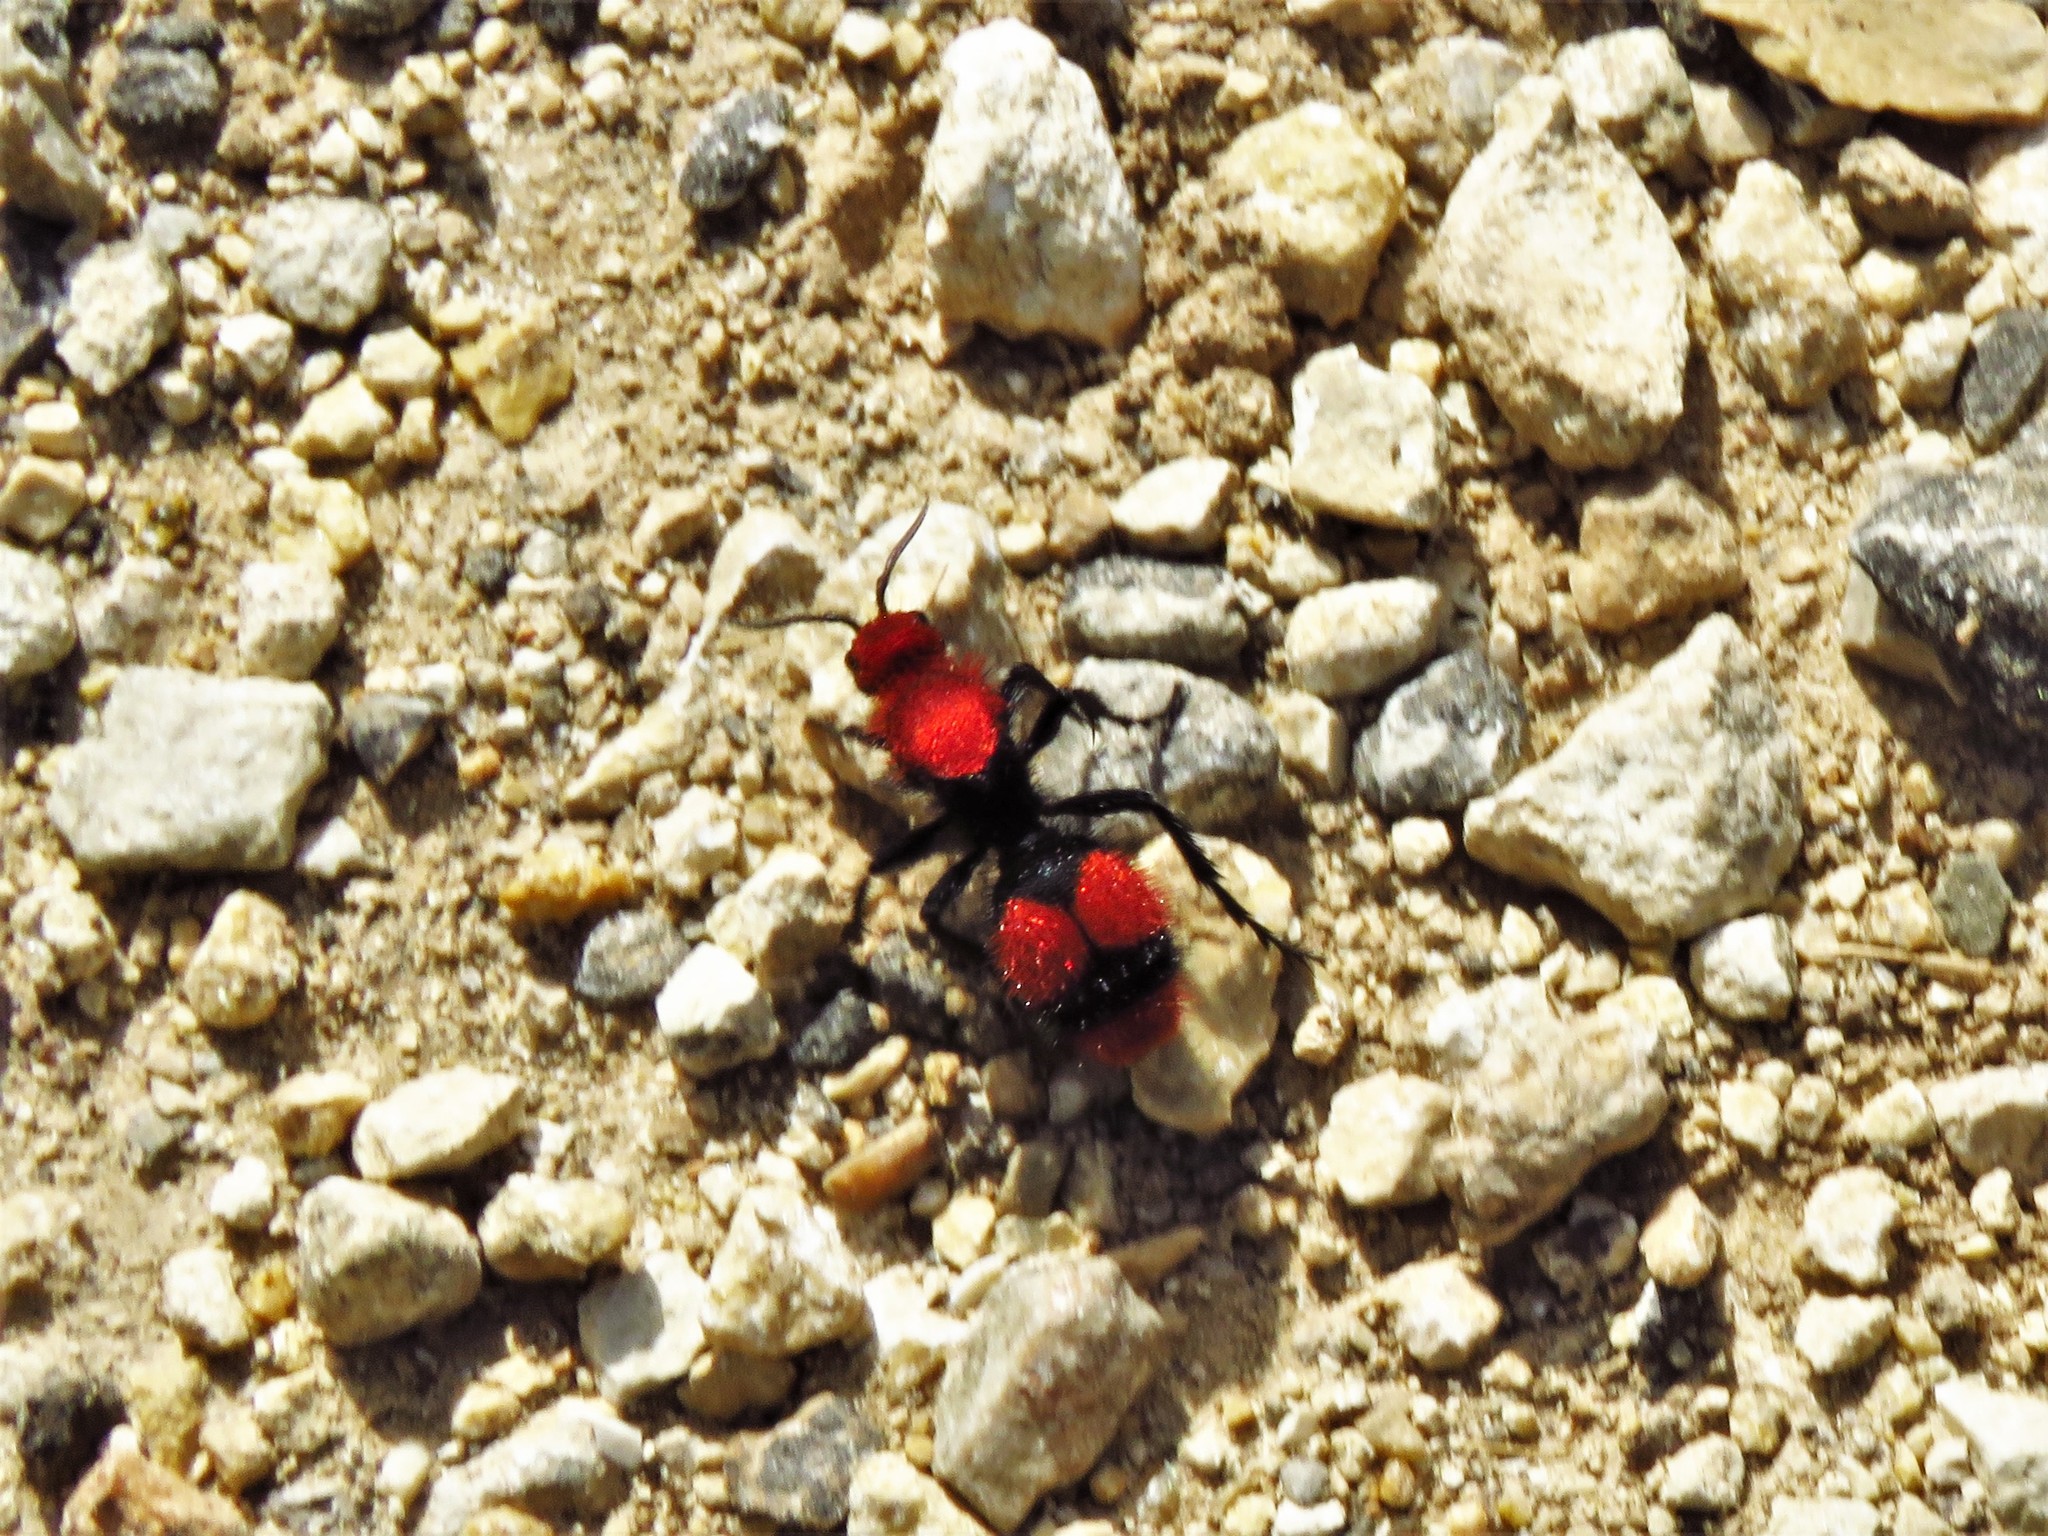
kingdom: Animalia
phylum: Arthropoda
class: Insecta
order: Hymenoptera
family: Mutillidae
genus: Dasymutilla
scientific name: Dasymutilla occidentalis
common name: Common eastern velvet ant
